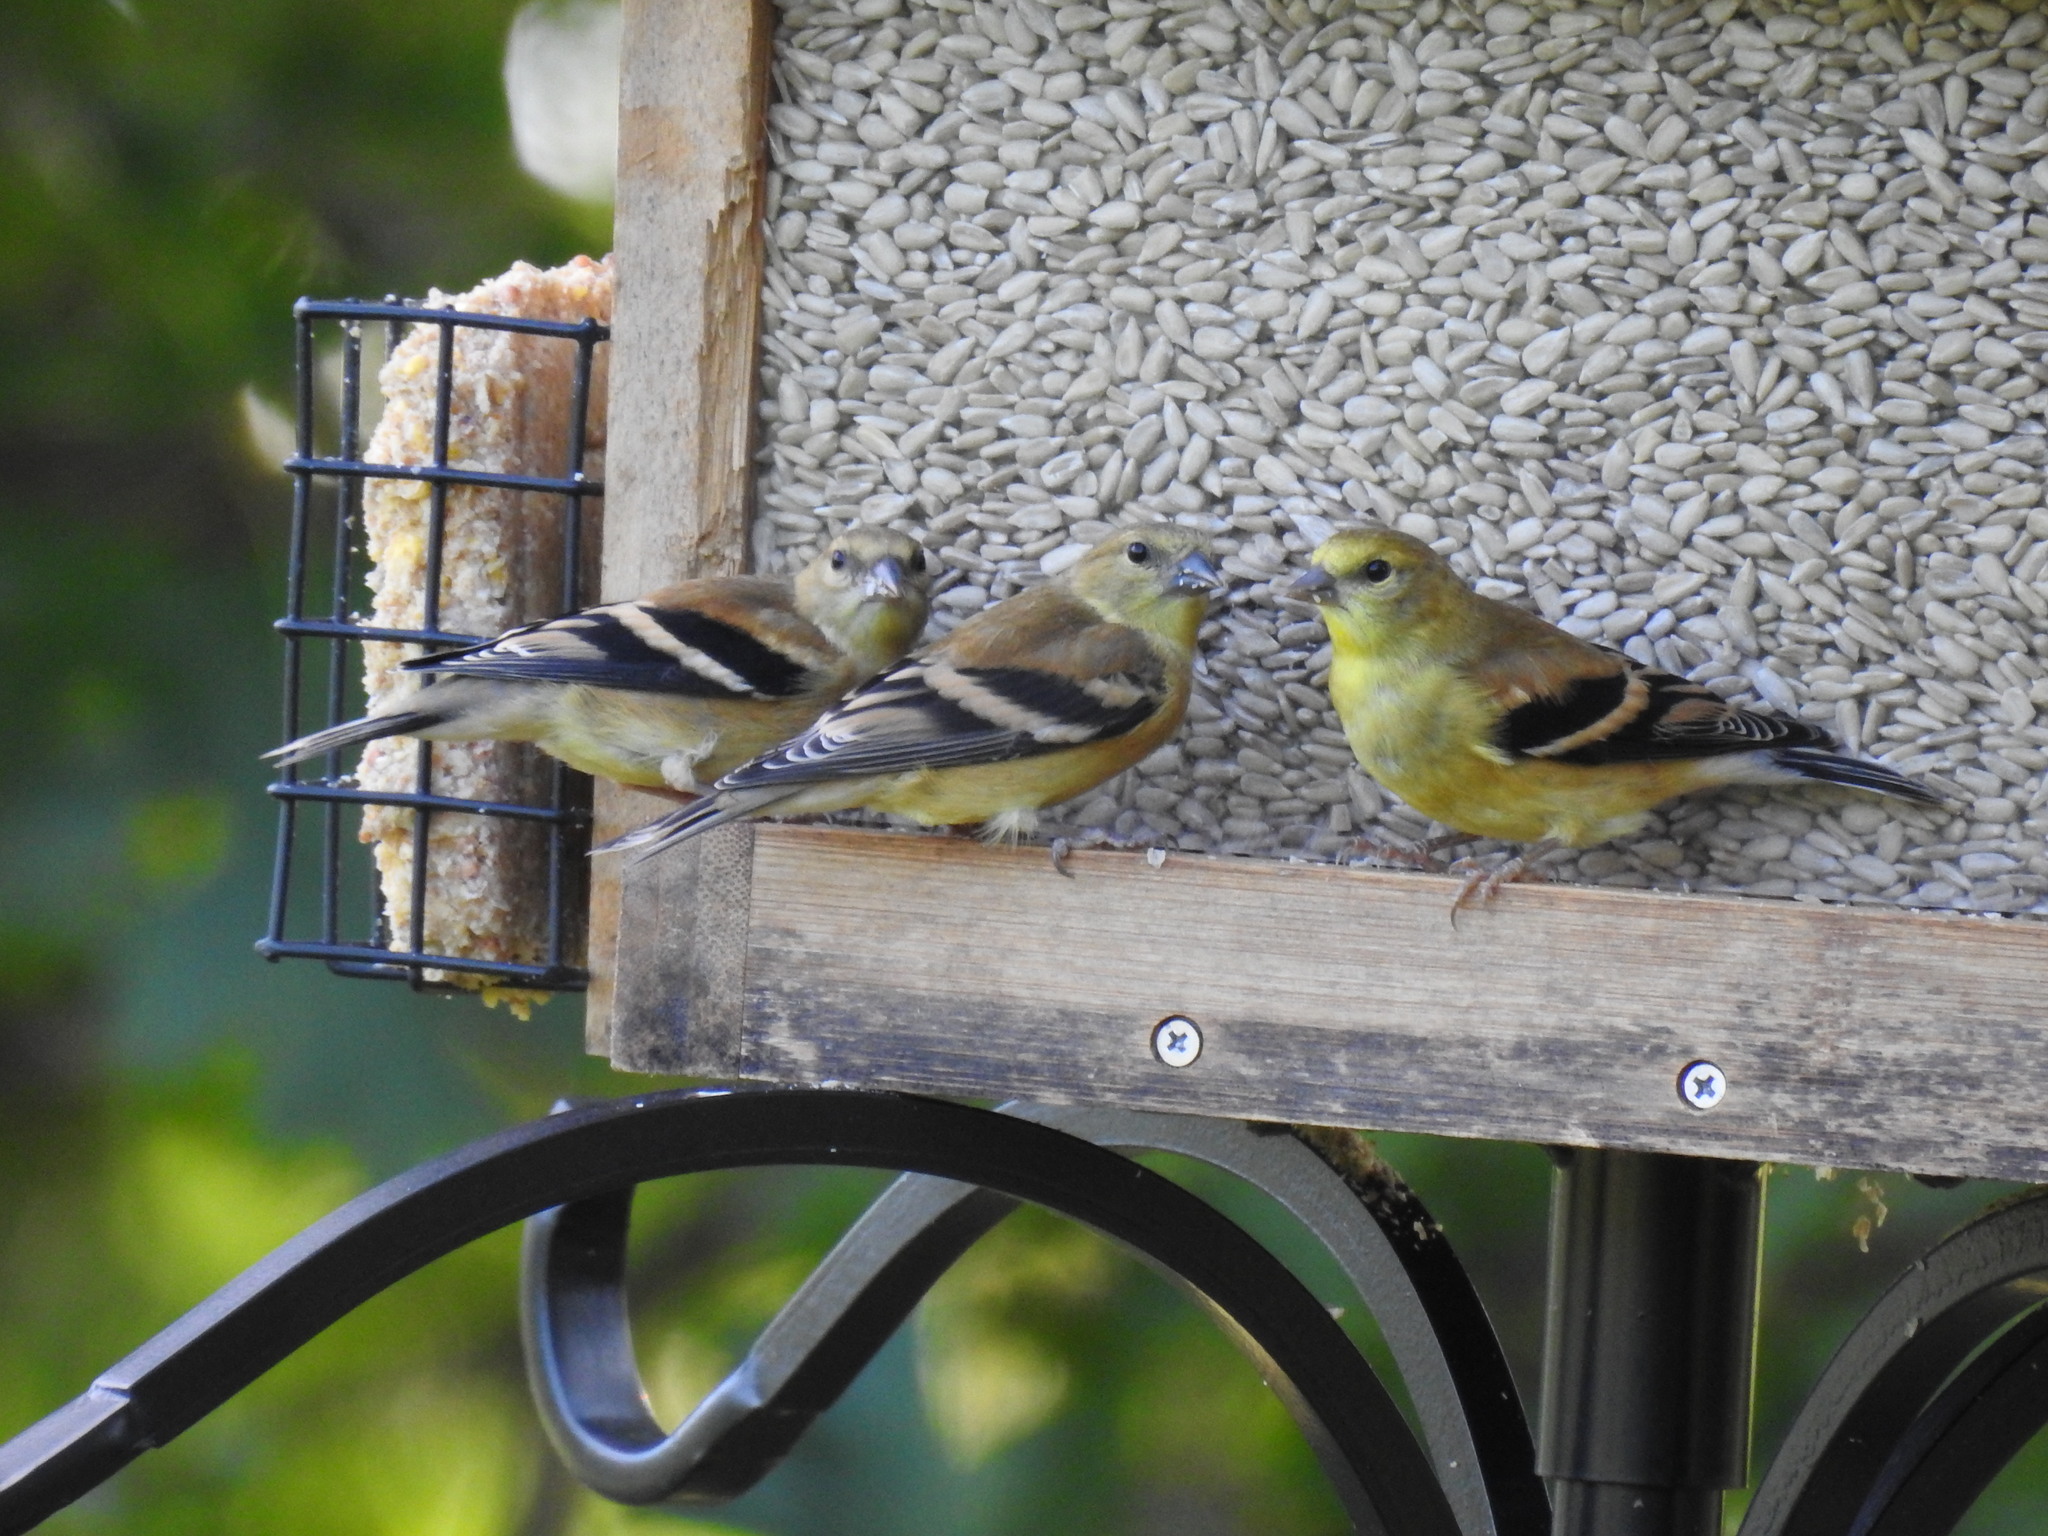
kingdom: Animalia
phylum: Chordata
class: Aves
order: Passeriformes
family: Fringillidae
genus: Spinus
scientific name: Spinus tristis
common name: American goldfinch
